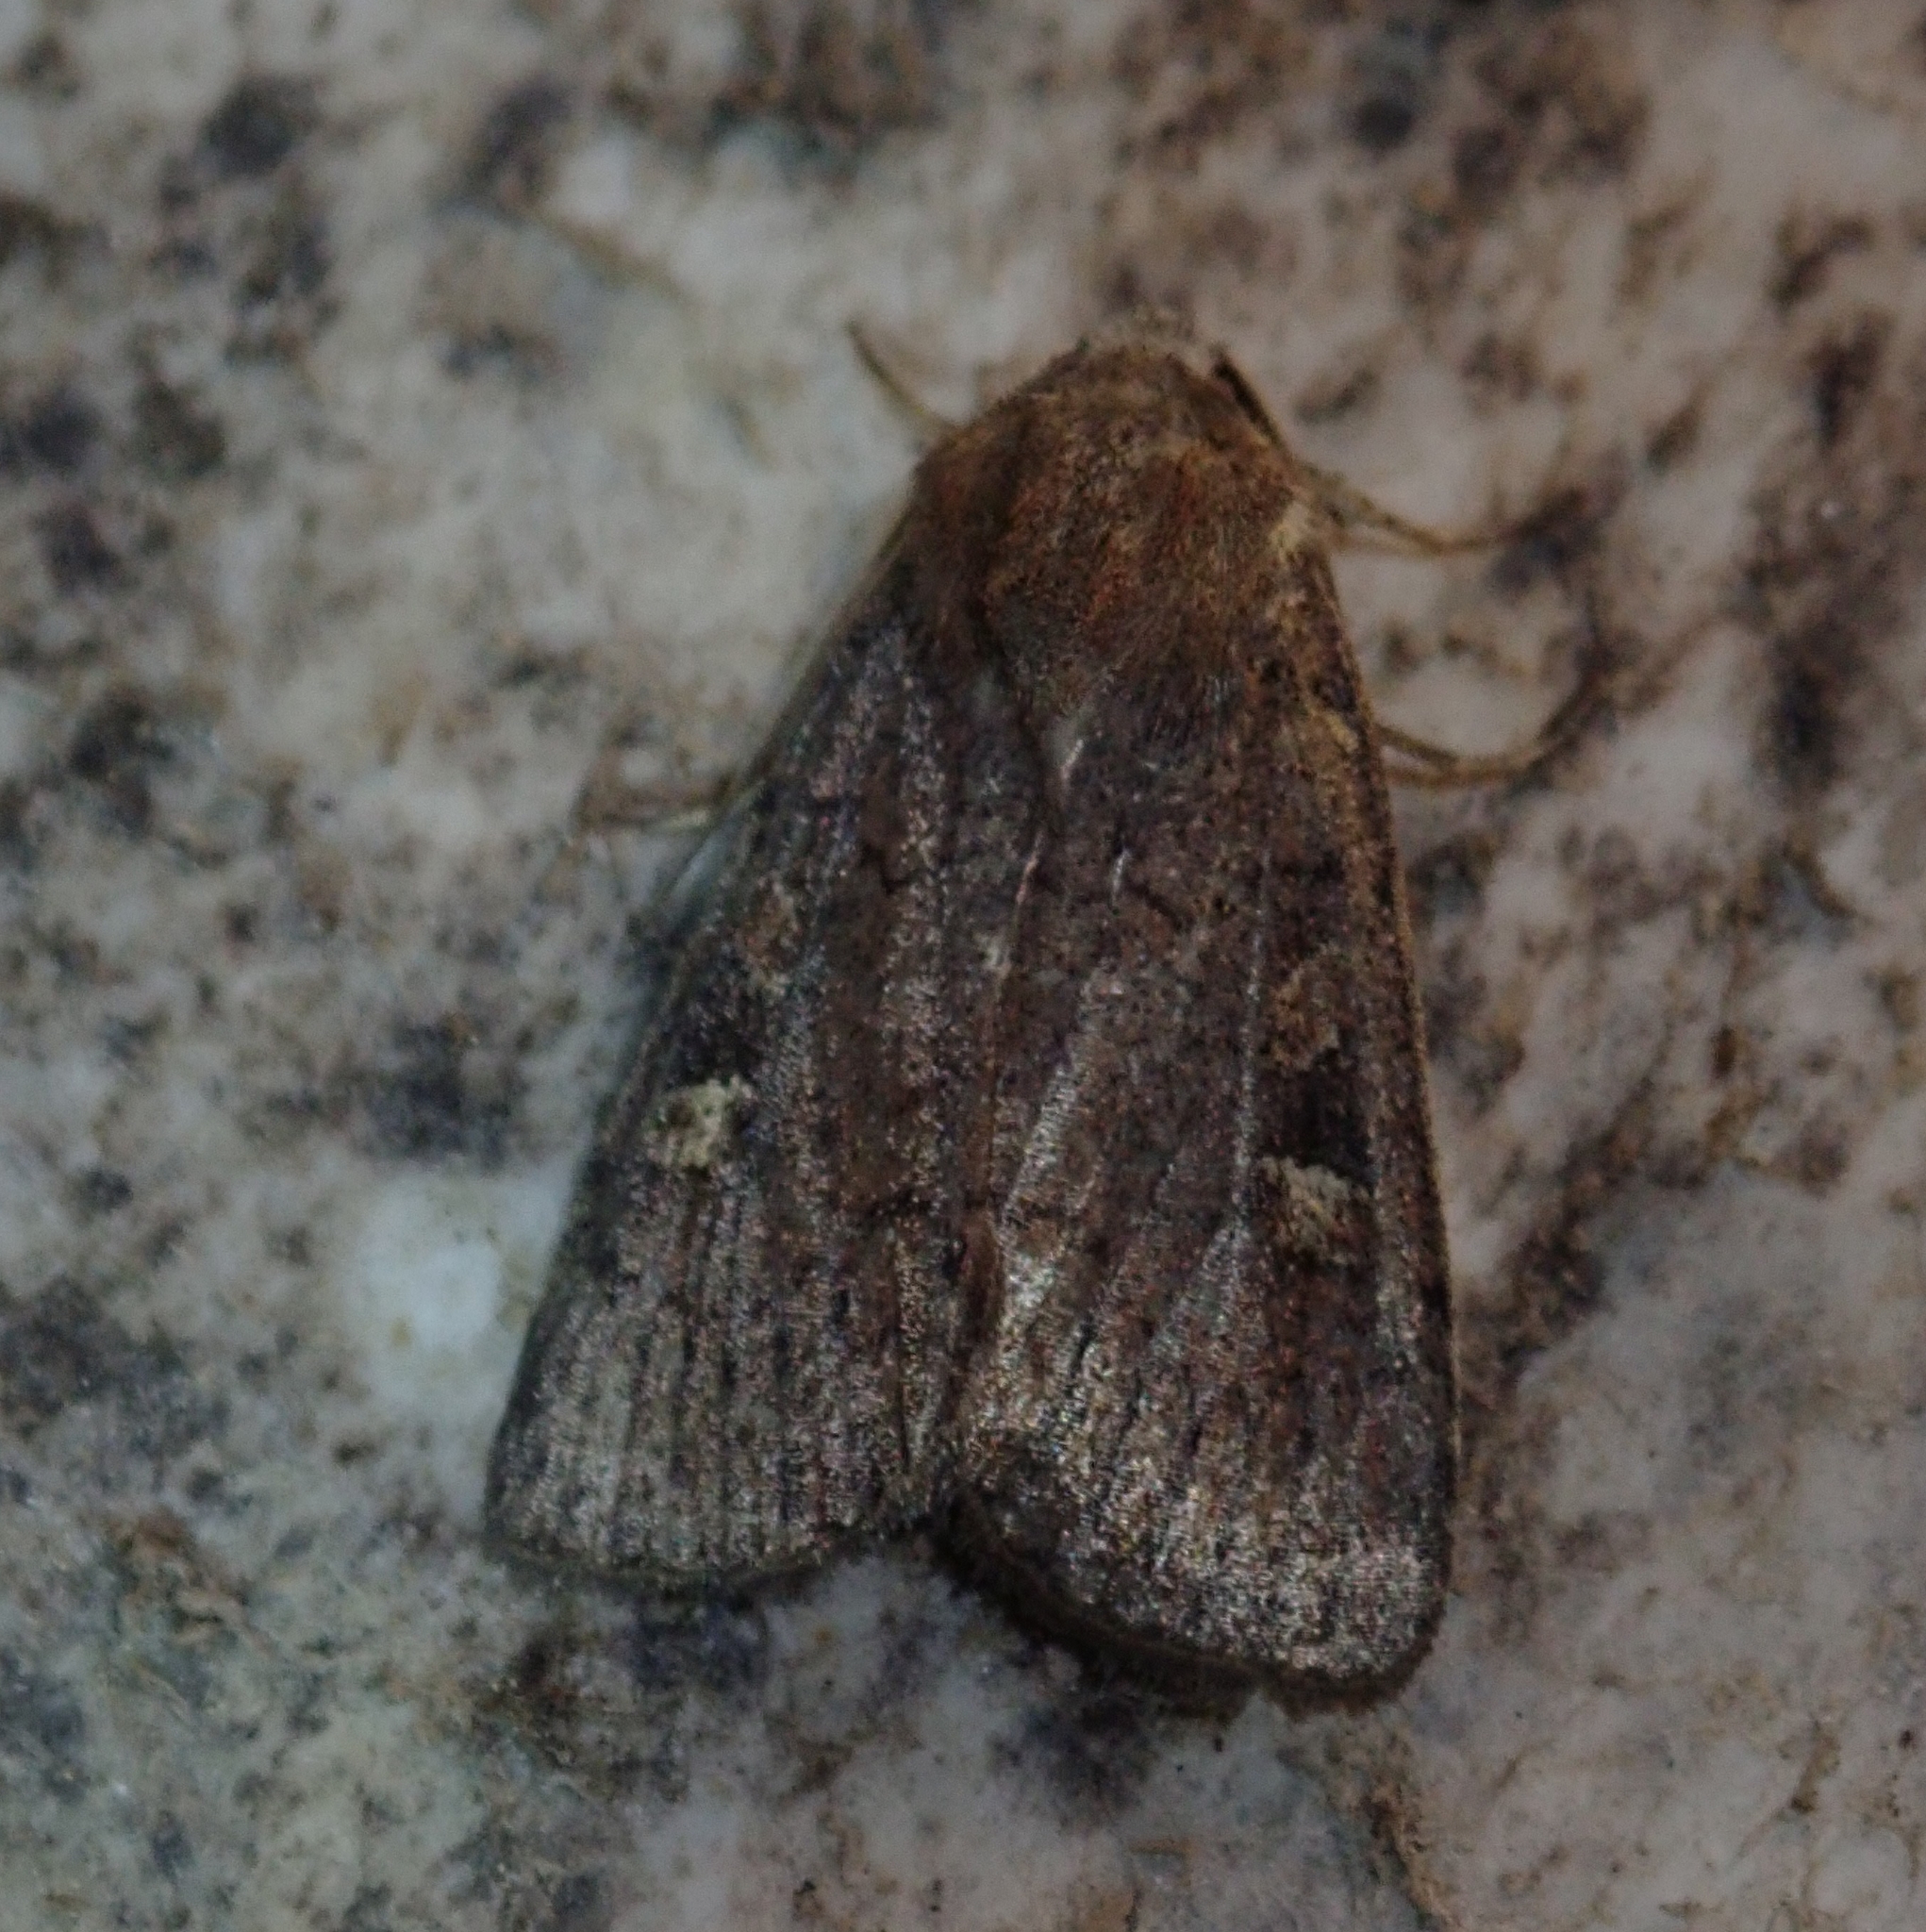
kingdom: Animalia
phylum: Arthropoda
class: Insecta
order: Lepidoptera
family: Noctuidae
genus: Xestia
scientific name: Xestia xanthographa
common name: Square-spot rustic
